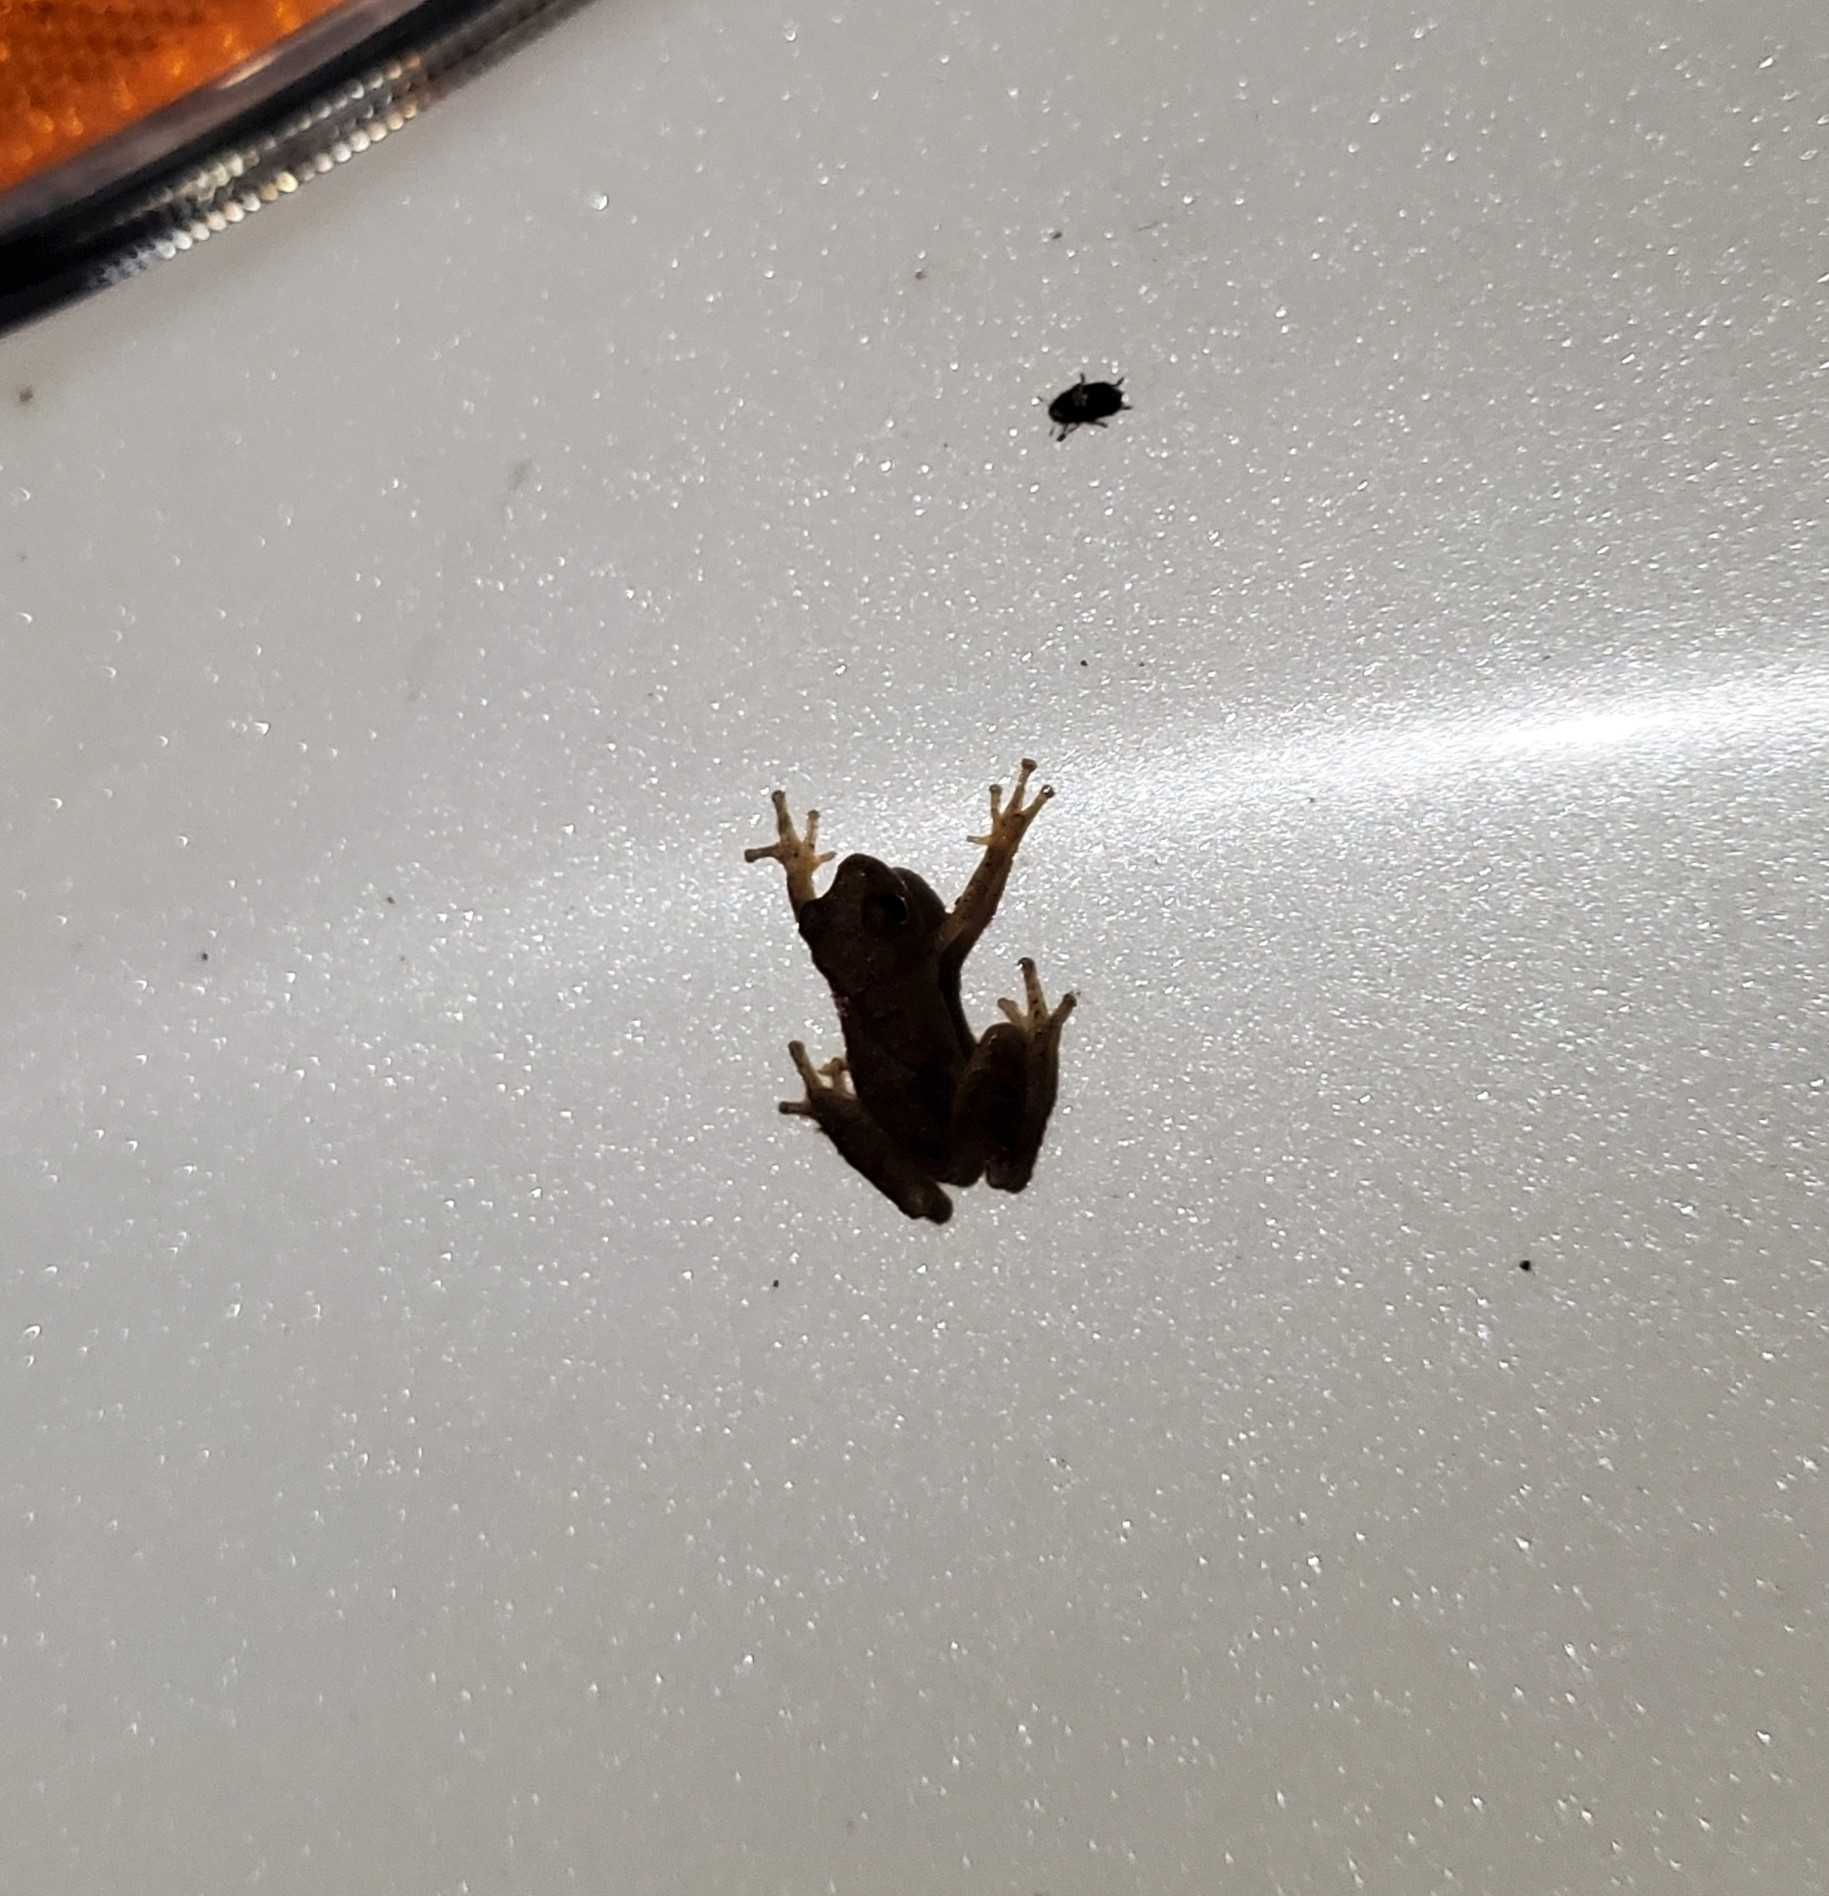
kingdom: Animalia
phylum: Chordata
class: Amphibia
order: Anura
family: Hylidae
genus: Pseudacris
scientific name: Pseudacris crucifer
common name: Spring peeper
